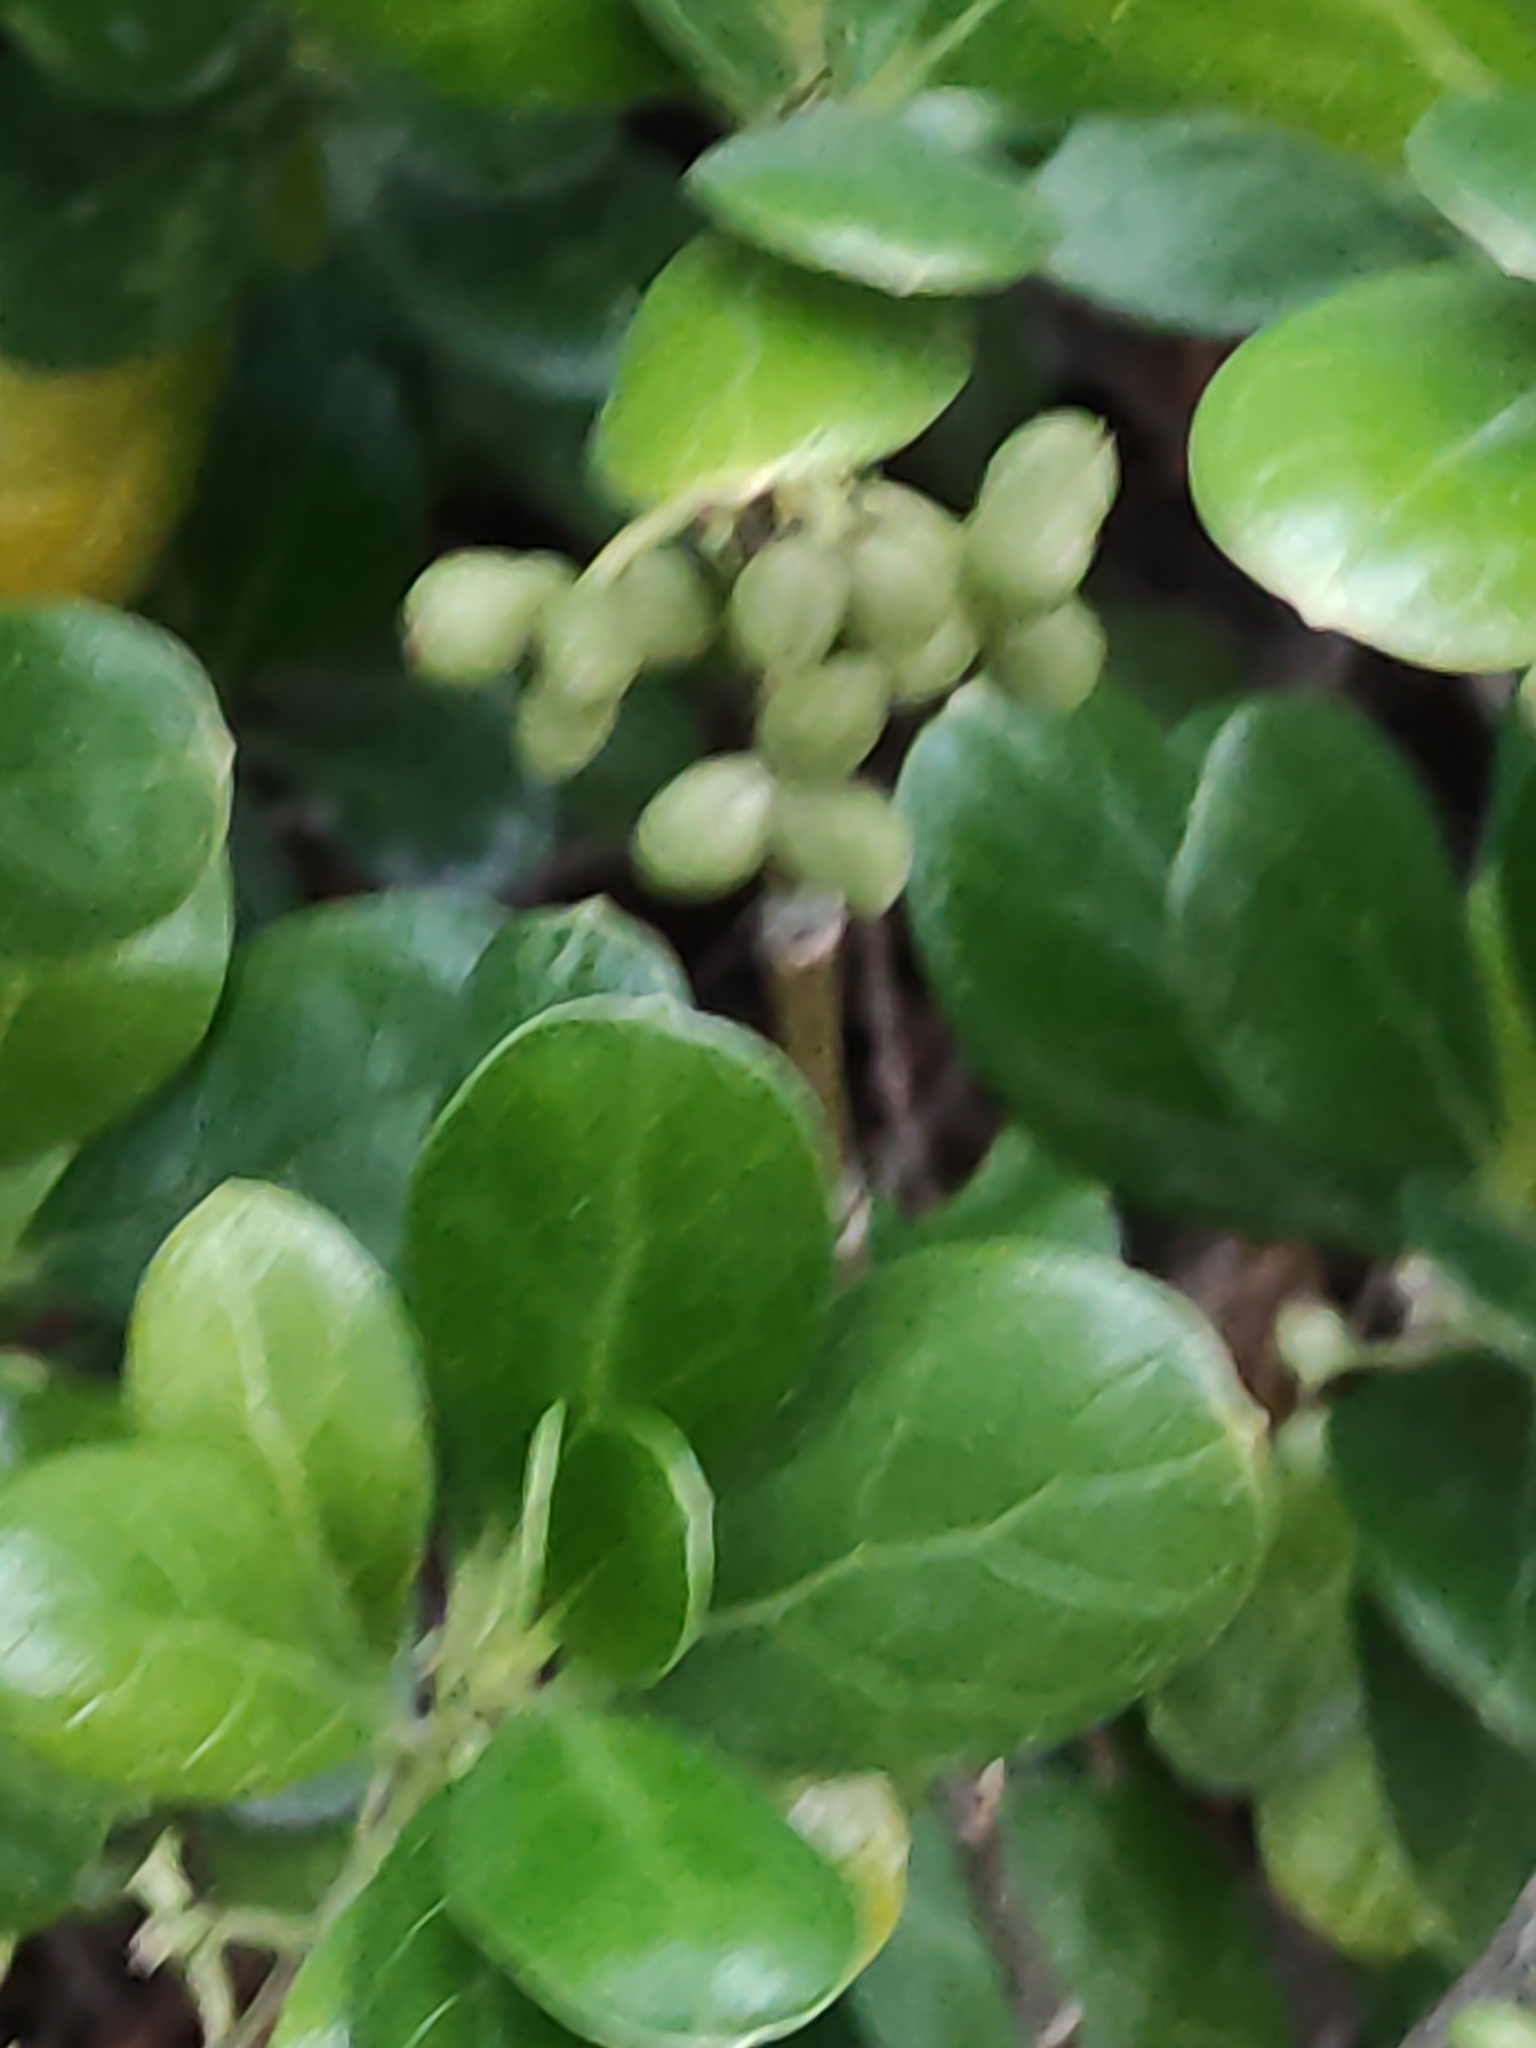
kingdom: Plantae
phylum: Tracheophyta
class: Magnoliopsida
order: Gentianales
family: Rubiaceae
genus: Coprosma
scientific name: Coprosma repens
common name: Tree bedstraw
